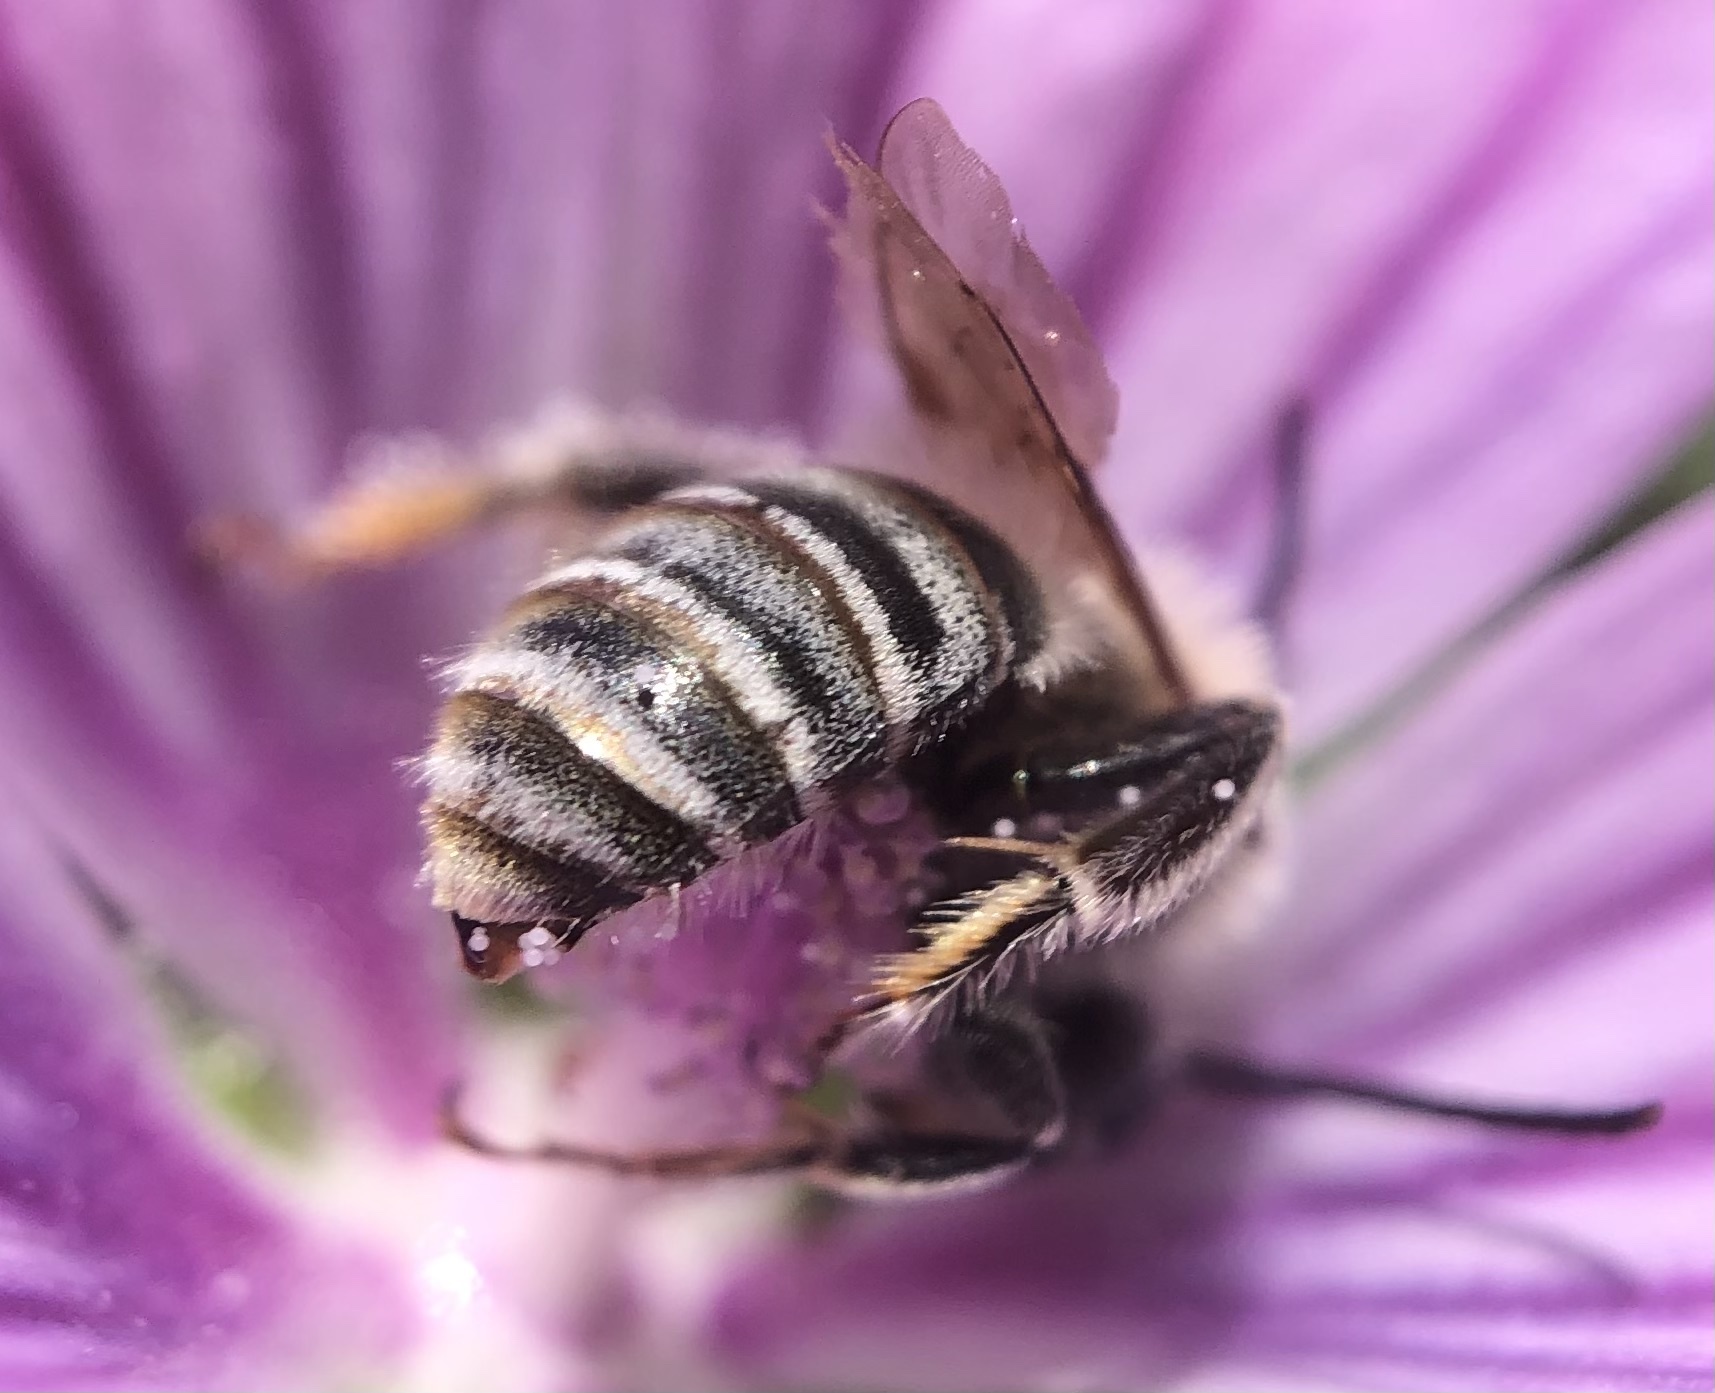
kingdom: Animalia
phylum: Arthropoda
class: Insecta
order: Hymenoptera
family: Apidae
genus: Tetralonia
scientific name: Tetralonia malvae
